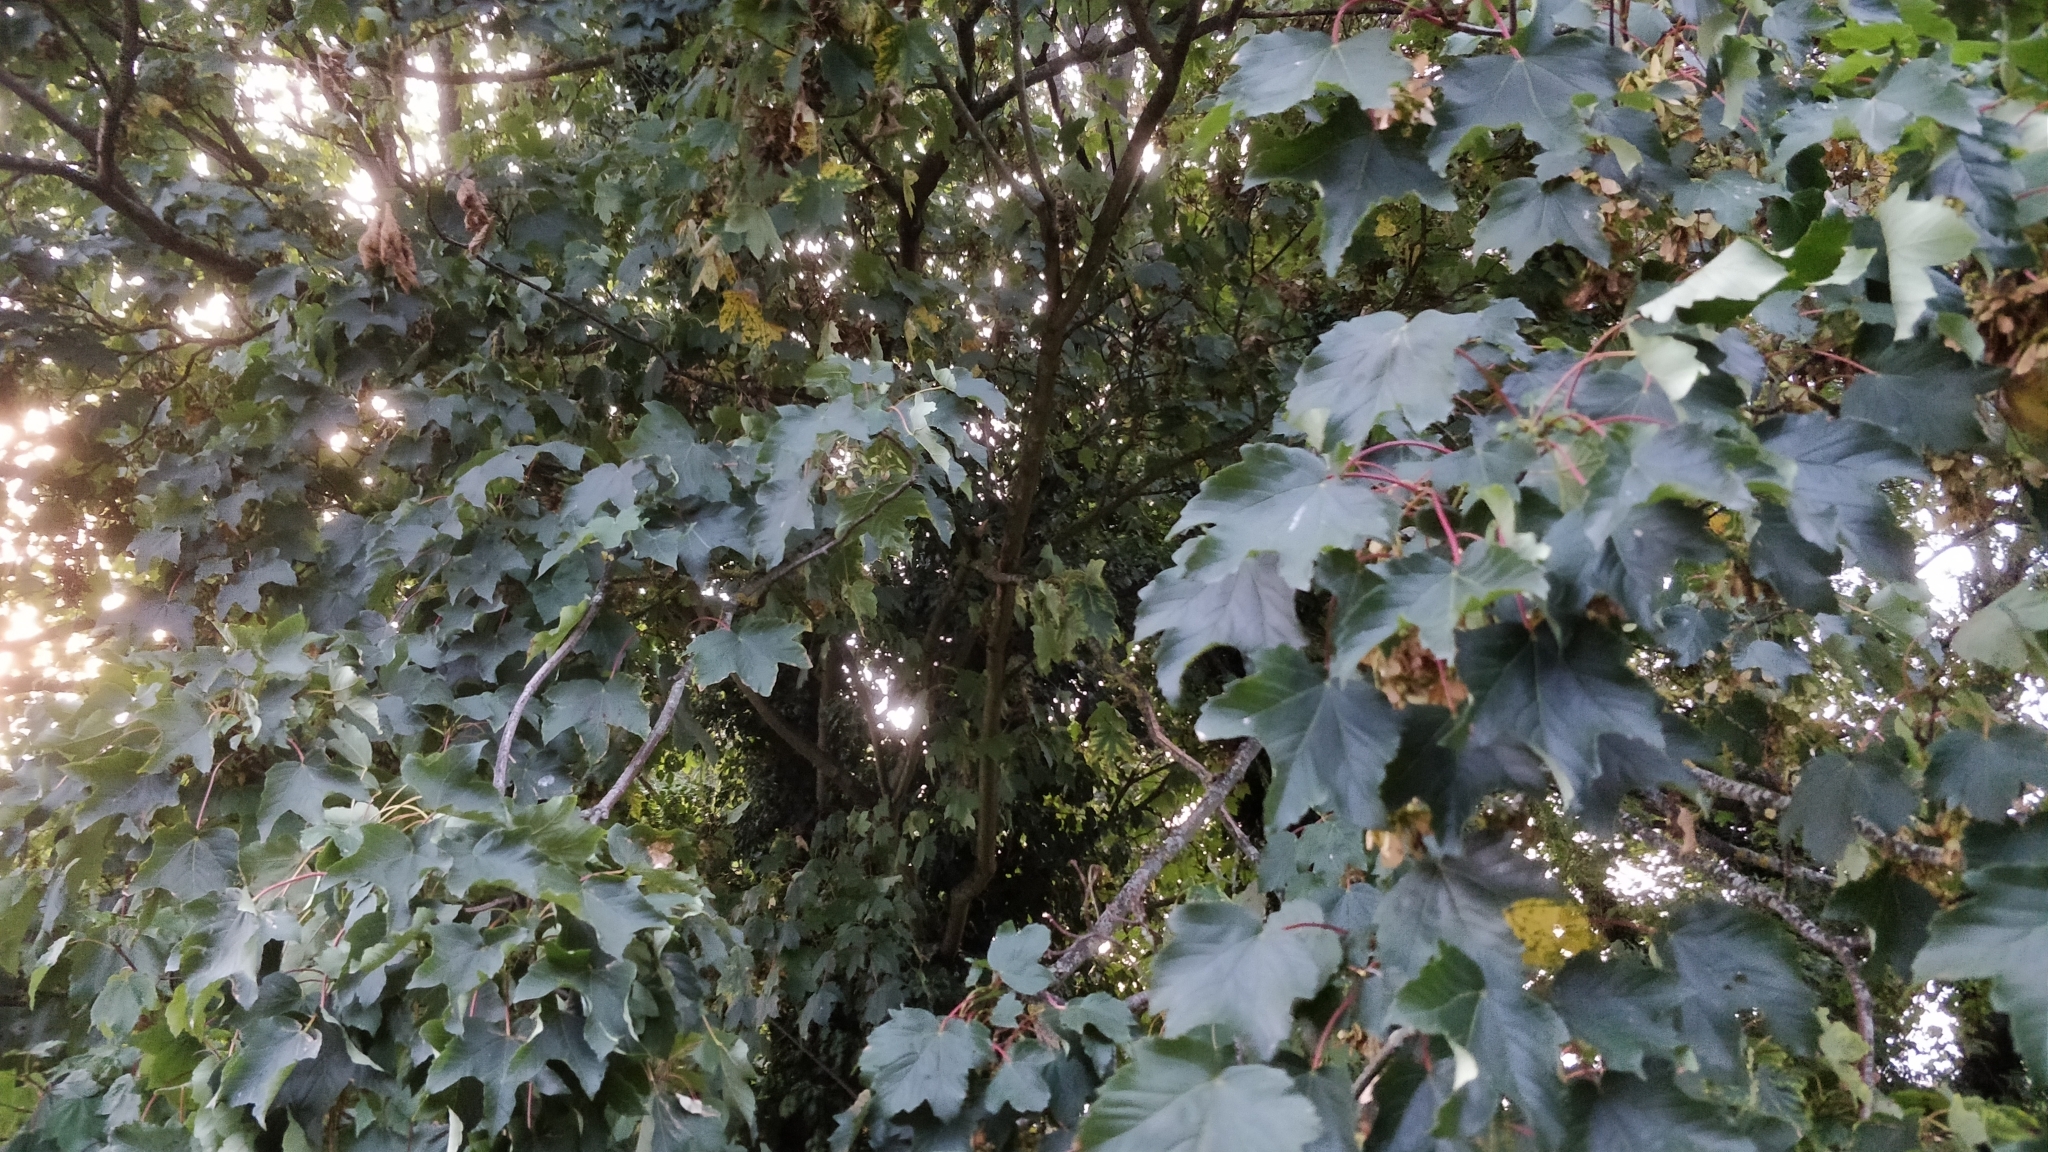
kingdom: Plantae
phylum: Tracheophyta
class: Magnoliopsida
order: Sapindales
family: Sapindaceae
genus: Acer
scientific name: Acer pseudoplatanus
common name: Sycamore
